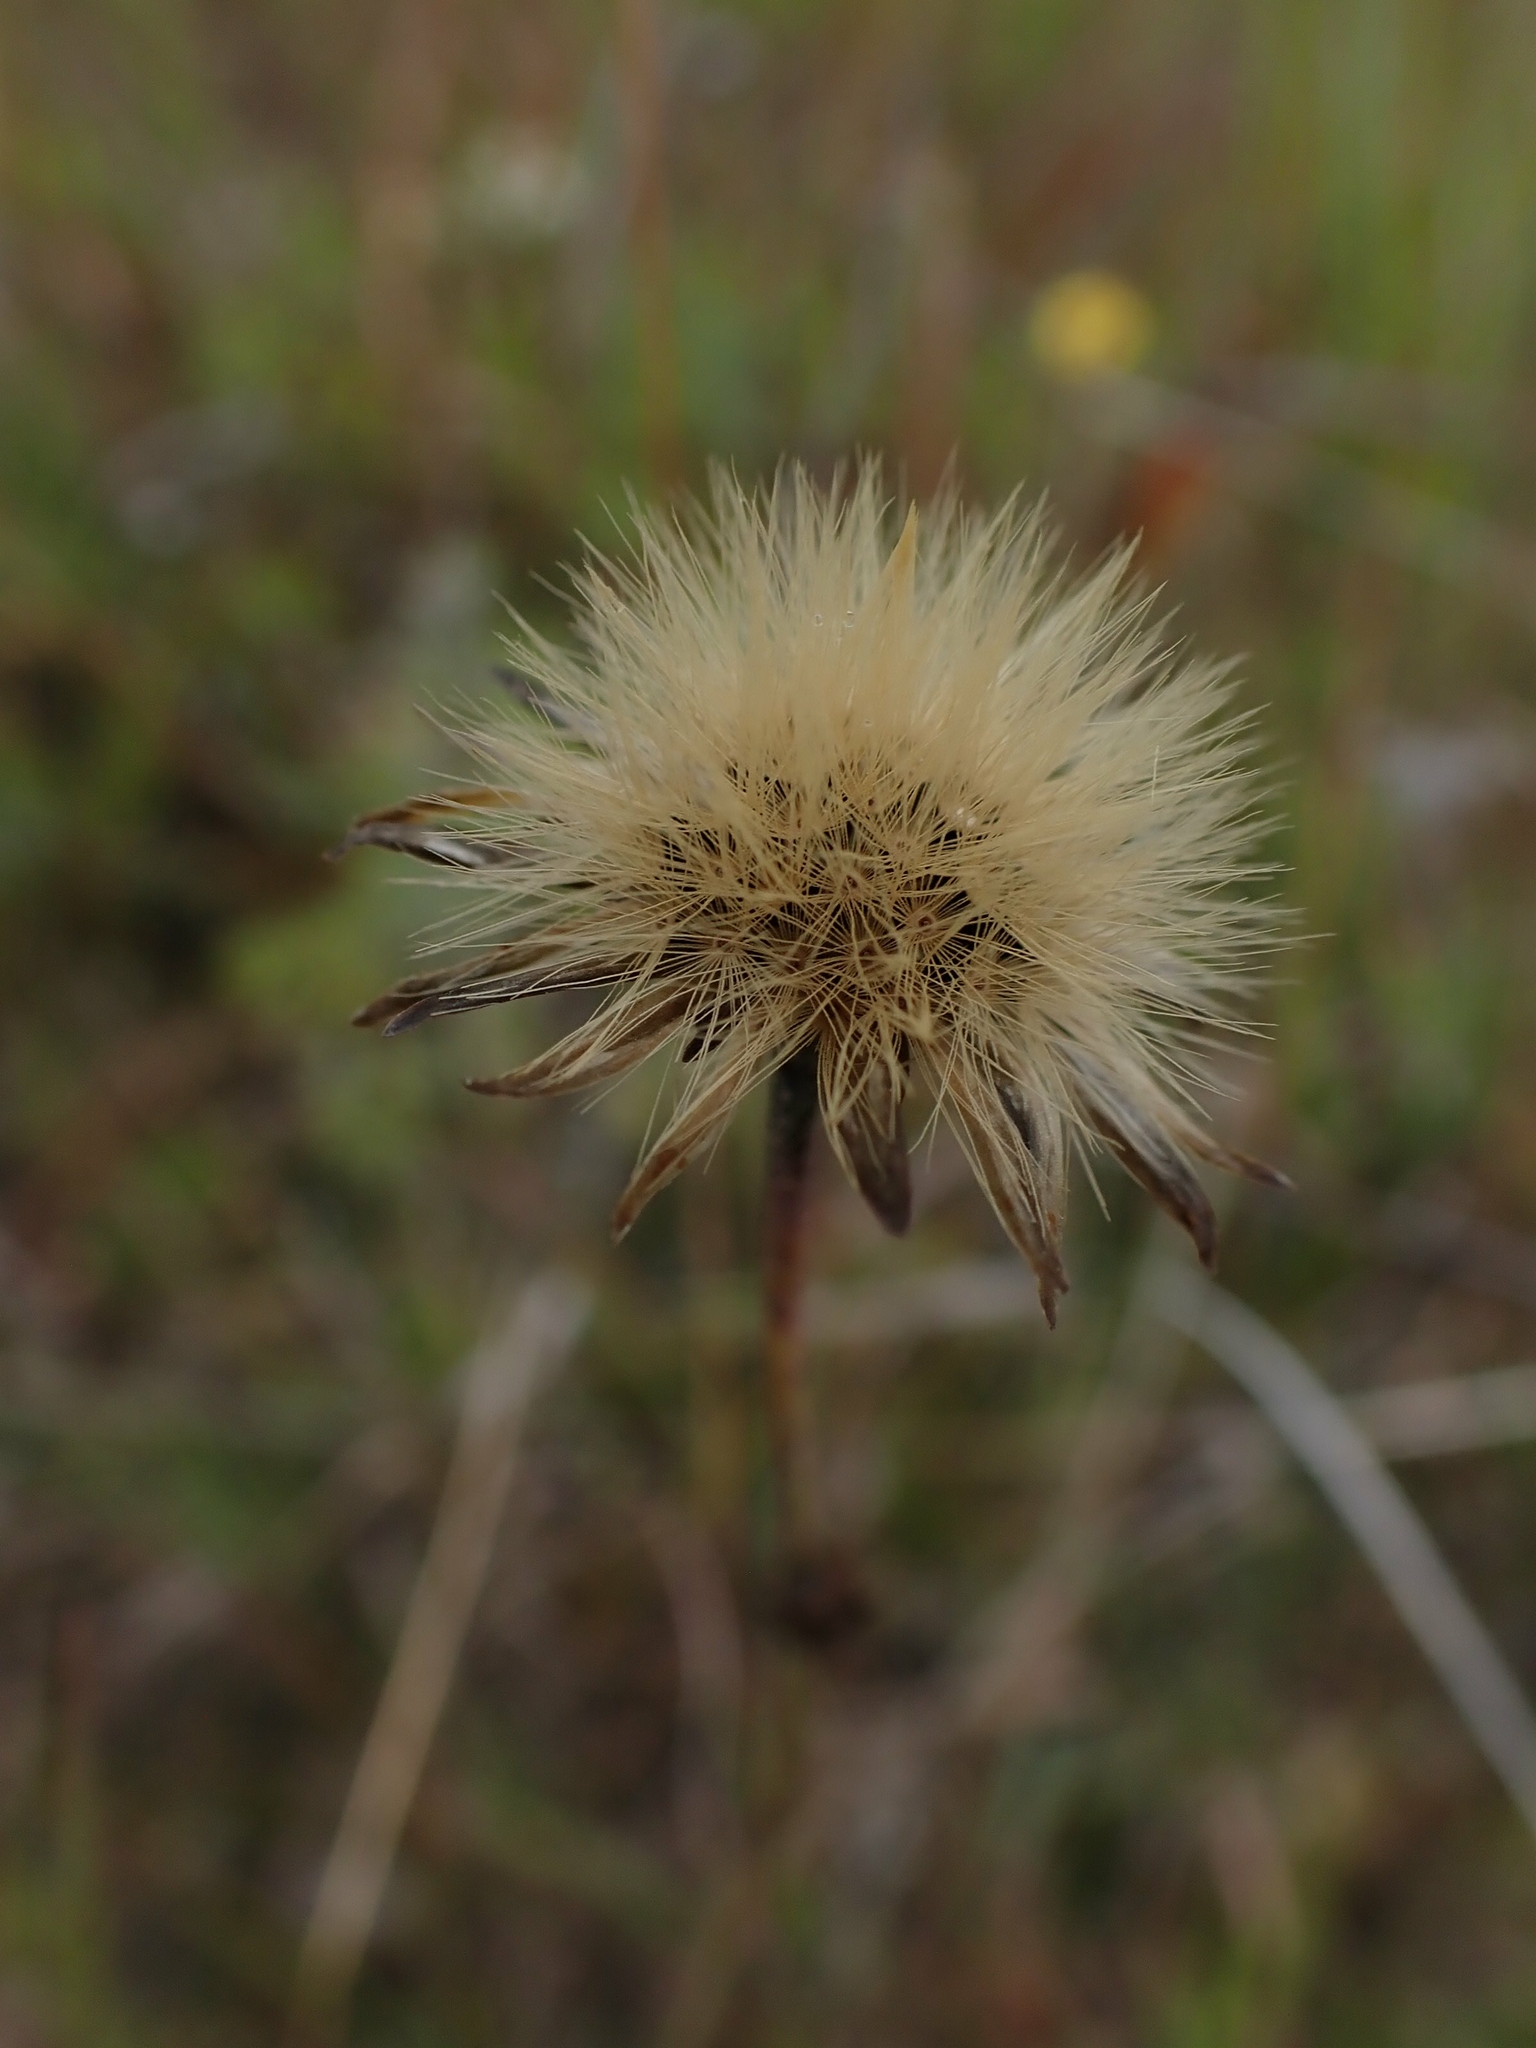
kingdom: Plantae
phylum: Tracheophyta
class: Magnoliopsida
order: Asterales
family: Asteraceae
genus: Liatris
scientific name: Liatris ligulistylis
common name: Northern plains gayfeather
